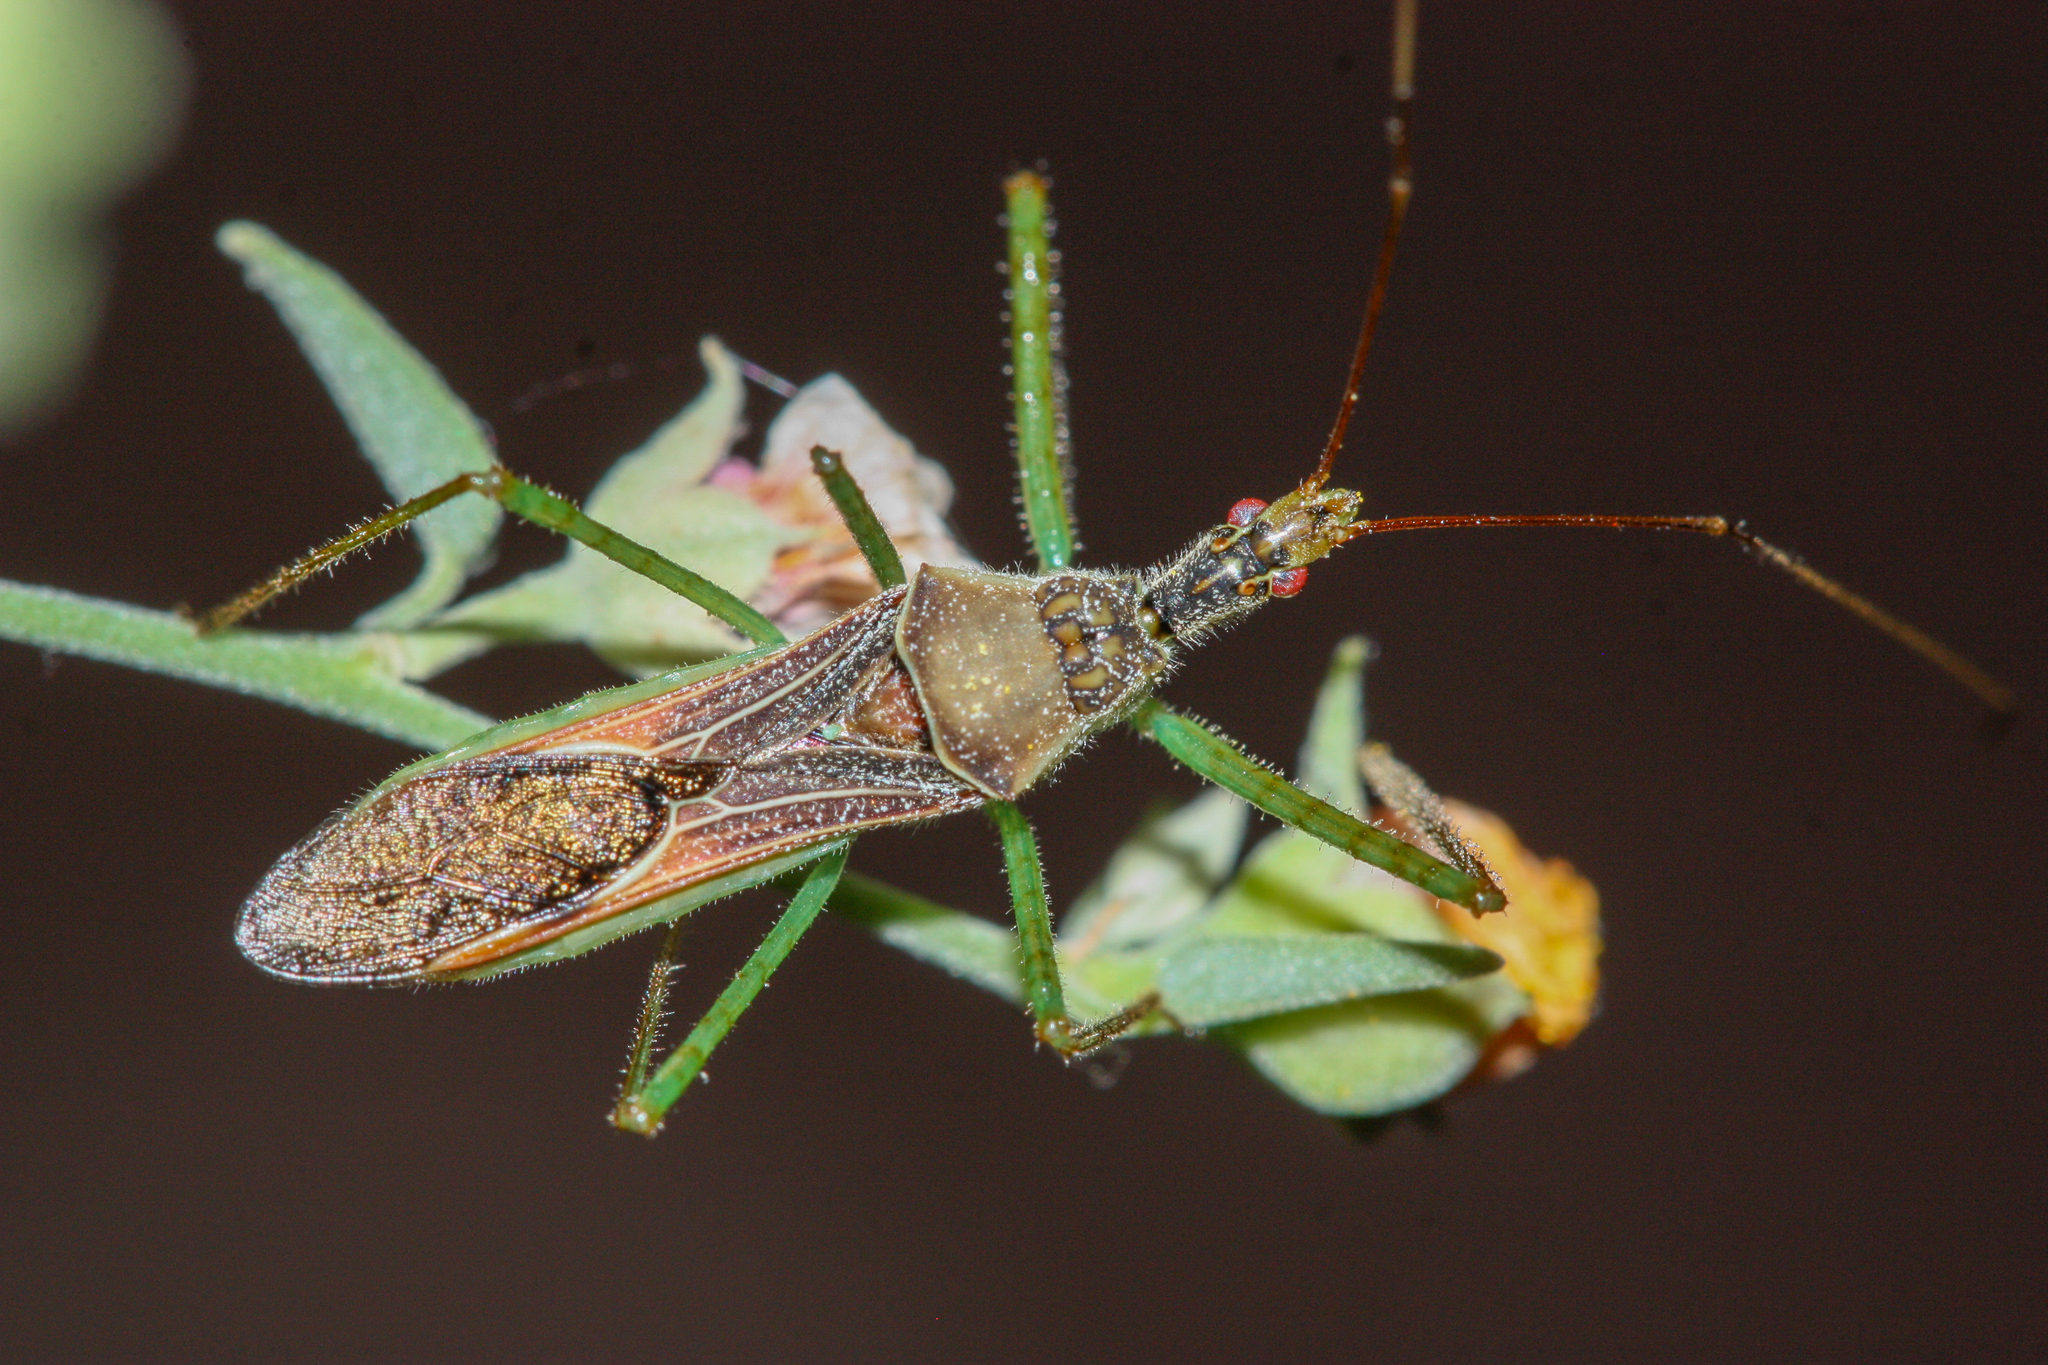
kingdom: Animalia
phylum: Arthropoda
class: Insecta
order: Hemiptera
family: Reduviidae
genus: Zelus
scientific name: Zelus renardii
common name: Assassin bug
